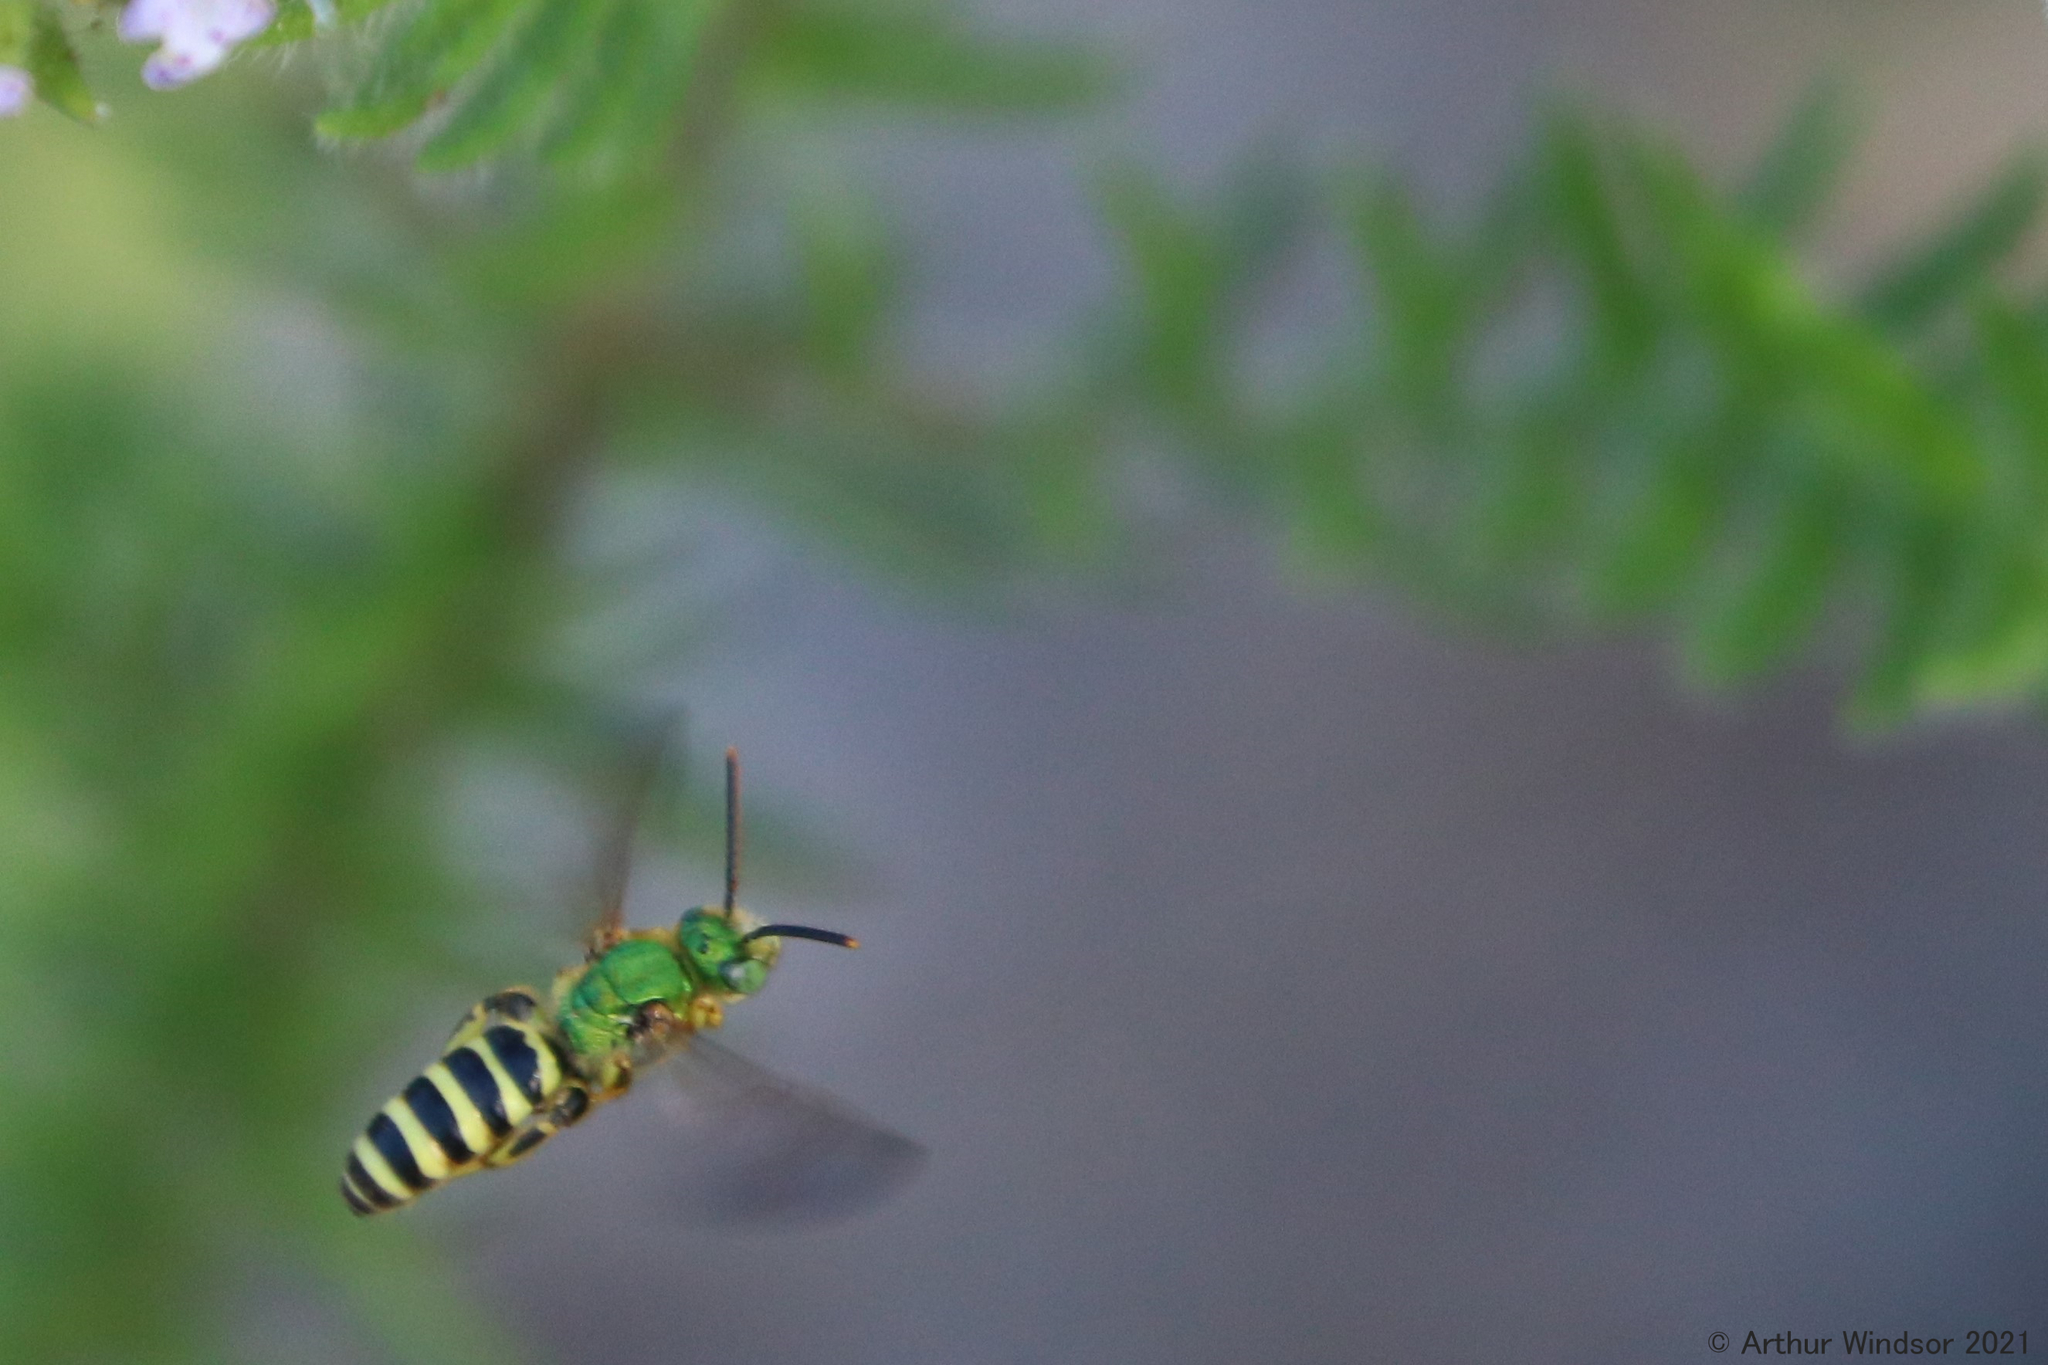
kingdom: Animalia
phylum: Arthropoda
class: Insecta
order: Hymenoptera
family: Halictidae
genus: Agapostemon
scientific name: Agapostemon splendens
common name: Brown-winged striped sweat bee
